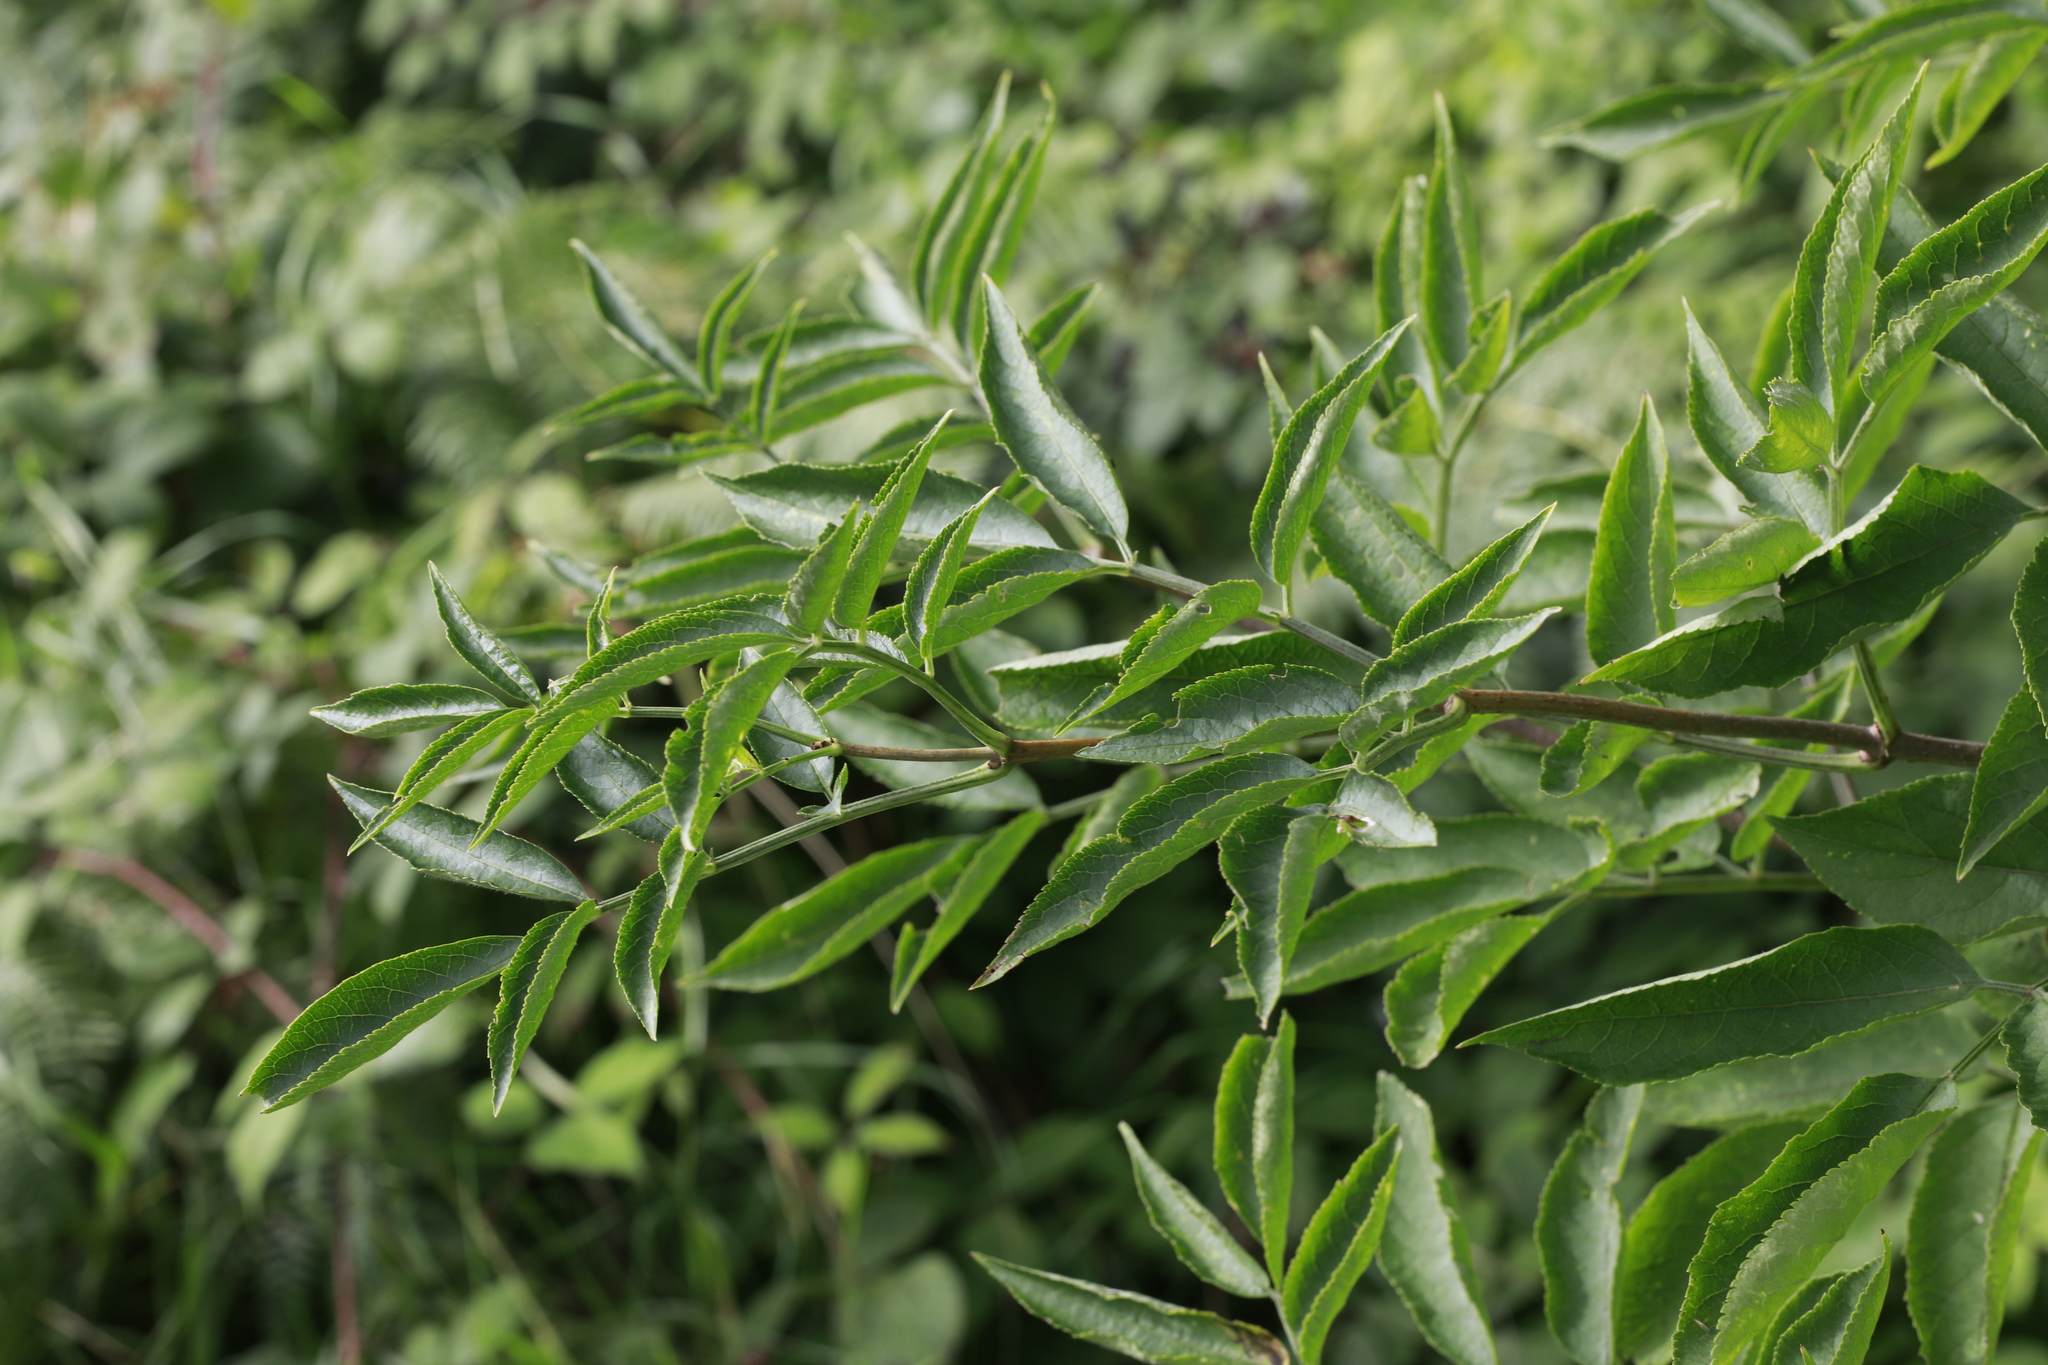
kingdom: Plantae
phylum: Tracheophyta
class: Magnoliopsida
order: Dipsacales
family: Viburnaceae
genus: Sambucus
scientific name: Sambucus nigra
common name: Elder
